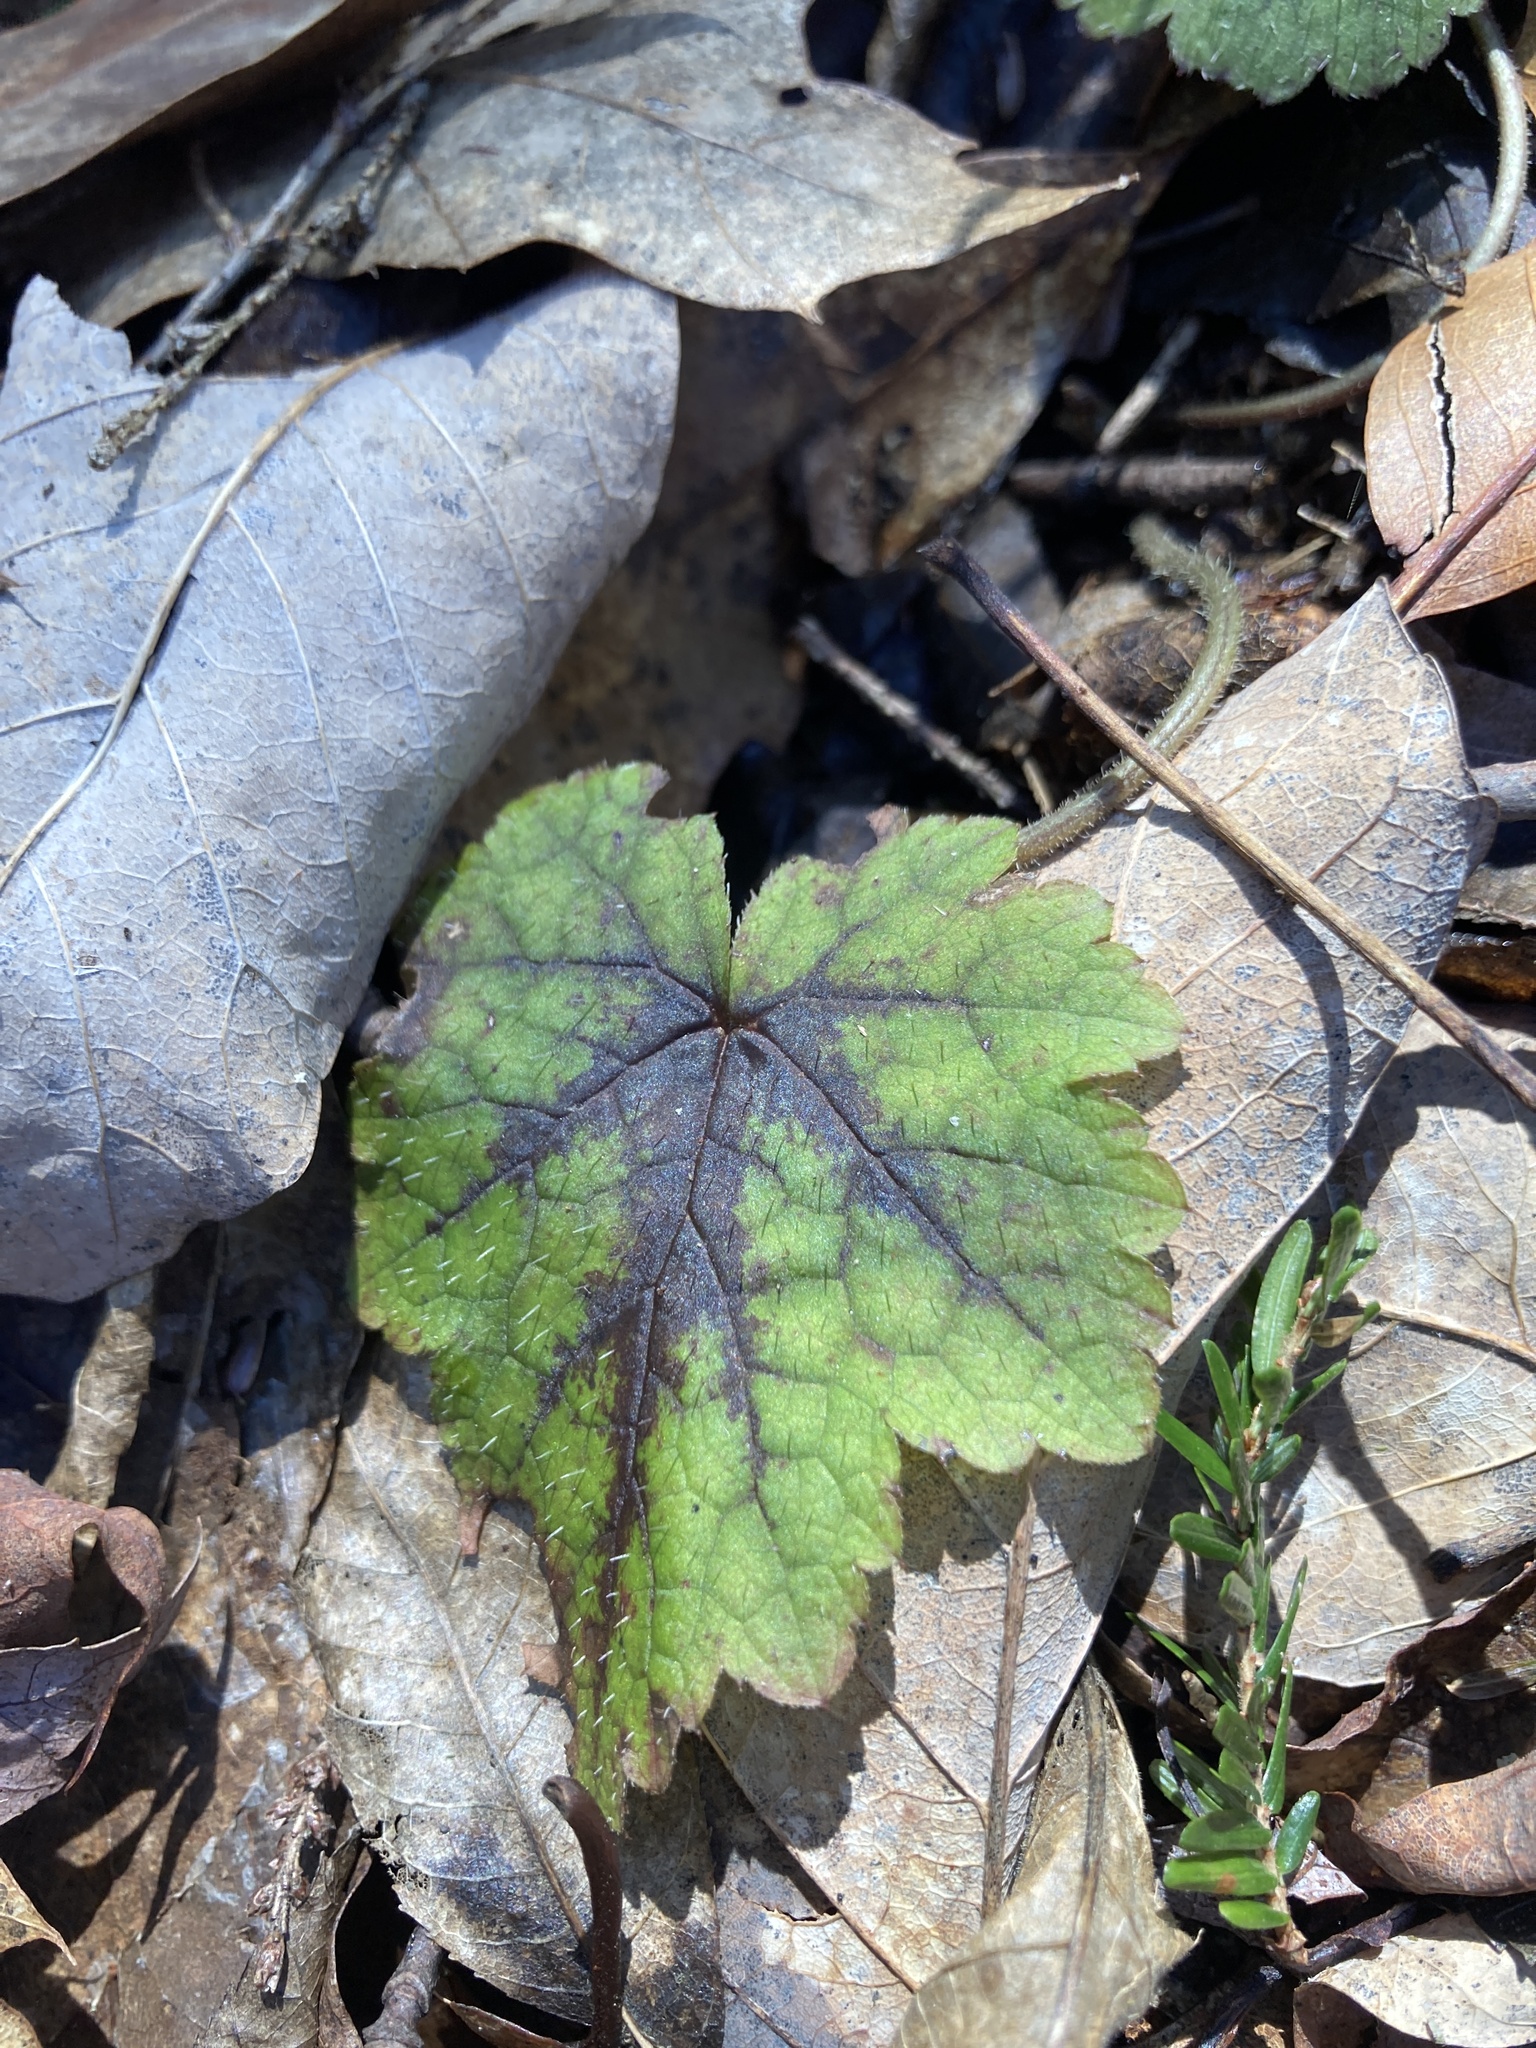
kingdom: Plantae
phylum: Tracheophyta
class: Magnoliopsida
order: Saxifragales
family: Saxifragaceae
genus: Tiarella
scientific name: Tiarella stolonifera
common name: Stoloniferous foamflower
